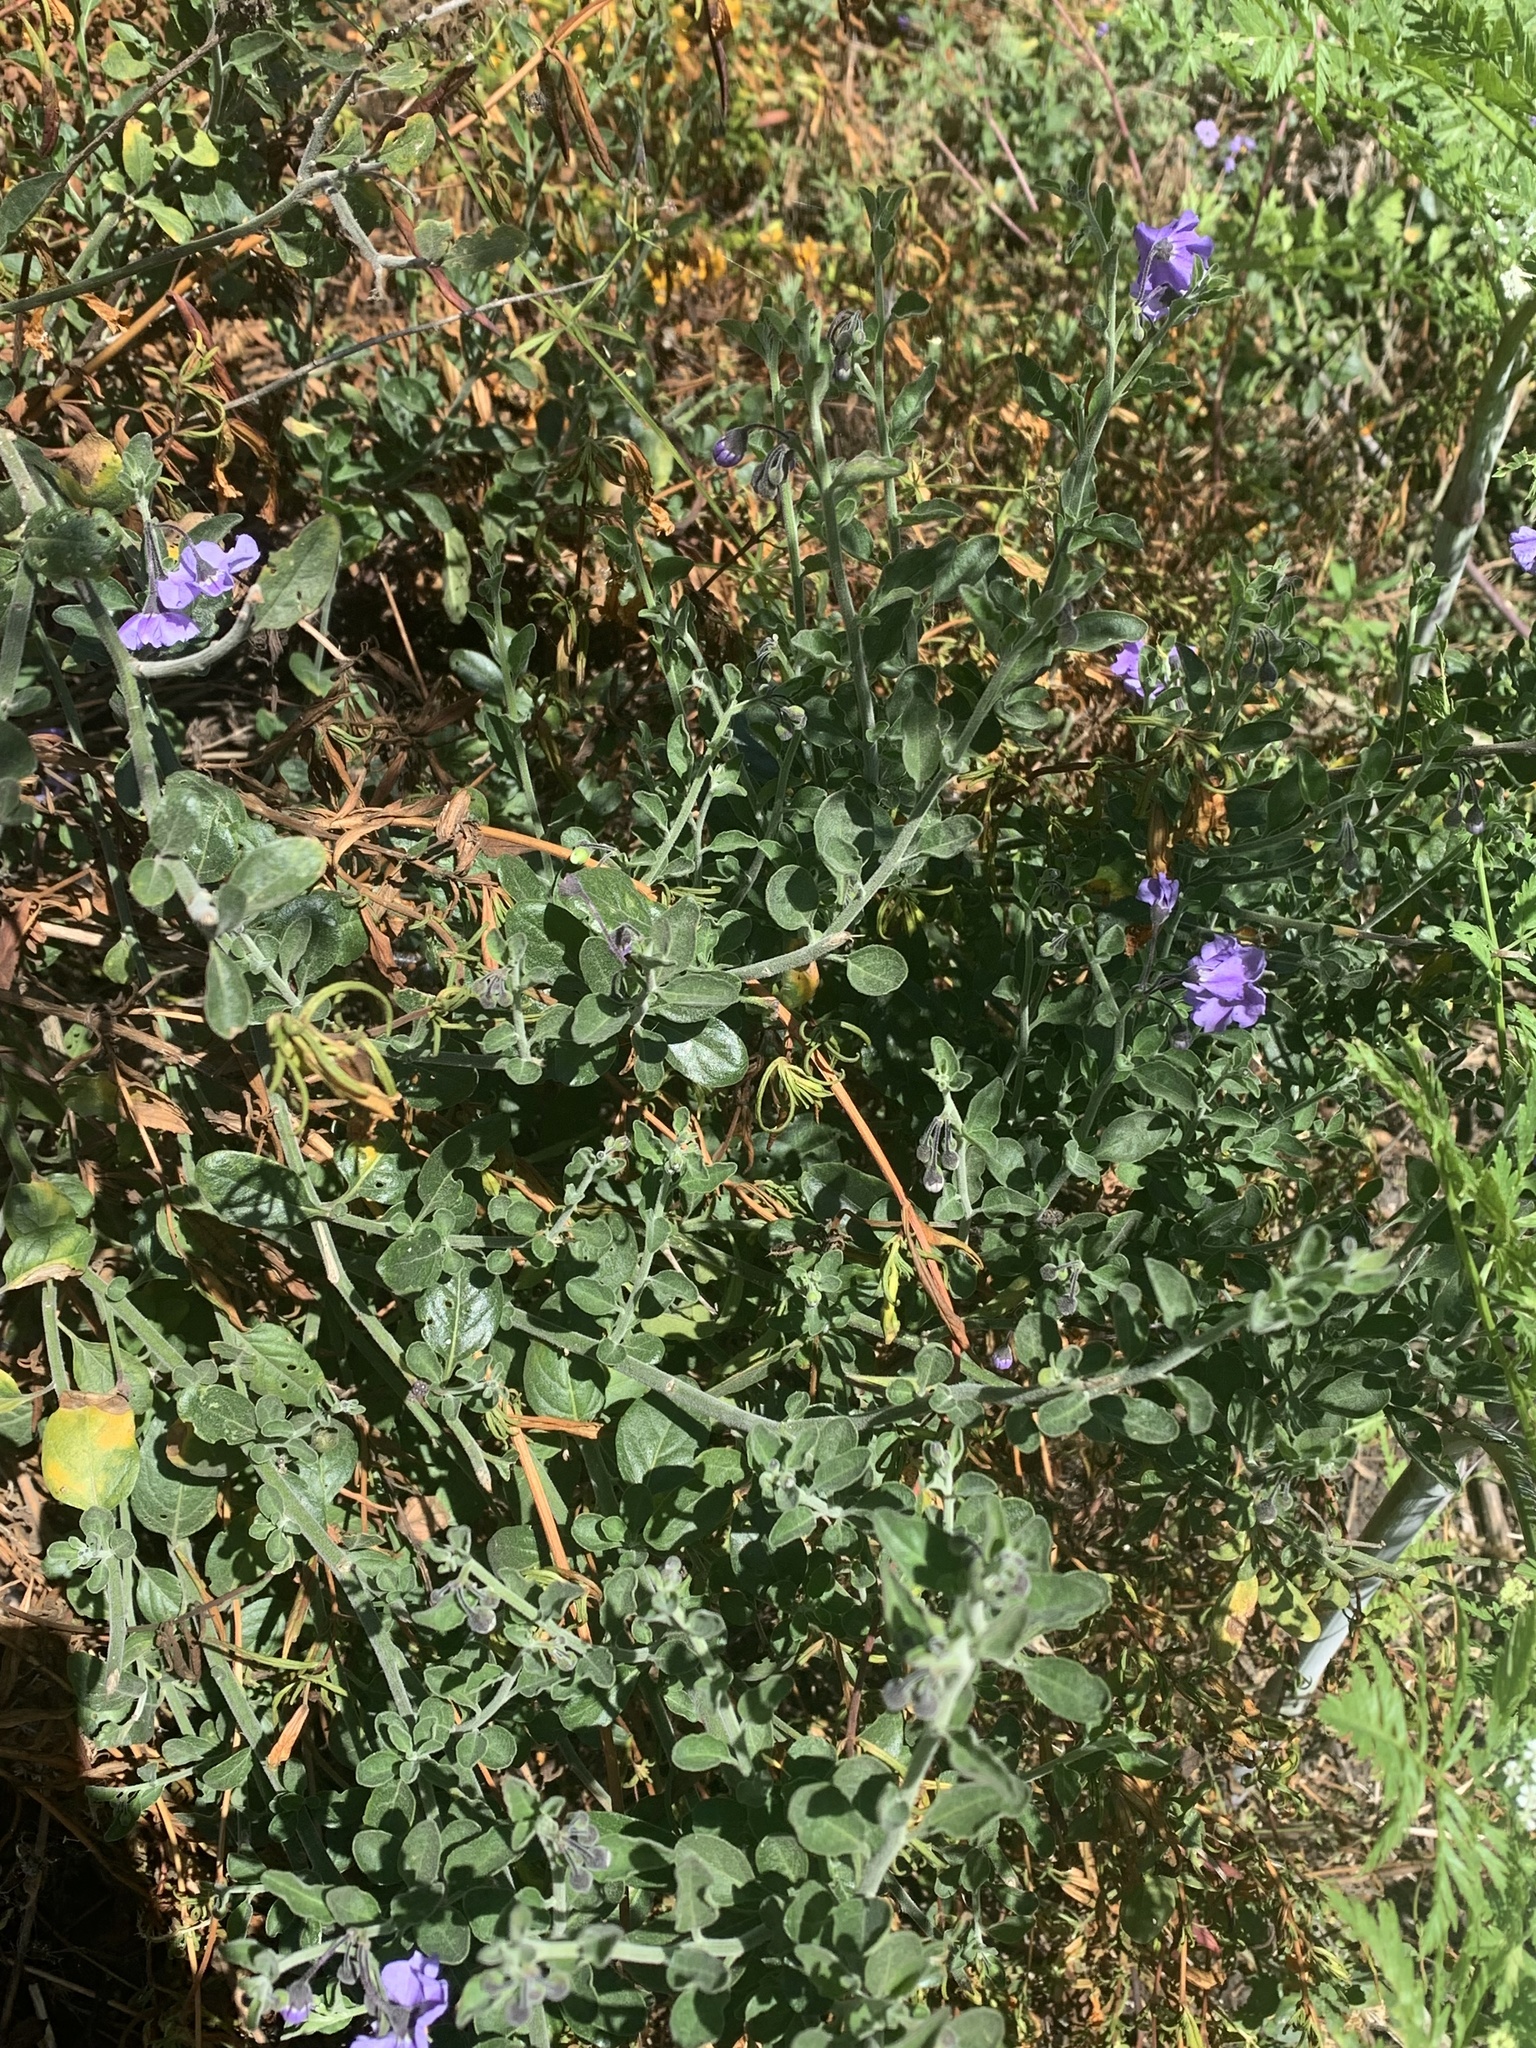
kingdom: Plantae
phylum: Tracheophyta
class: Magnoliopsida
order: Solanales
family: Solanaceae
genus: Solanum
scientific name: Solanum umbelliferum
